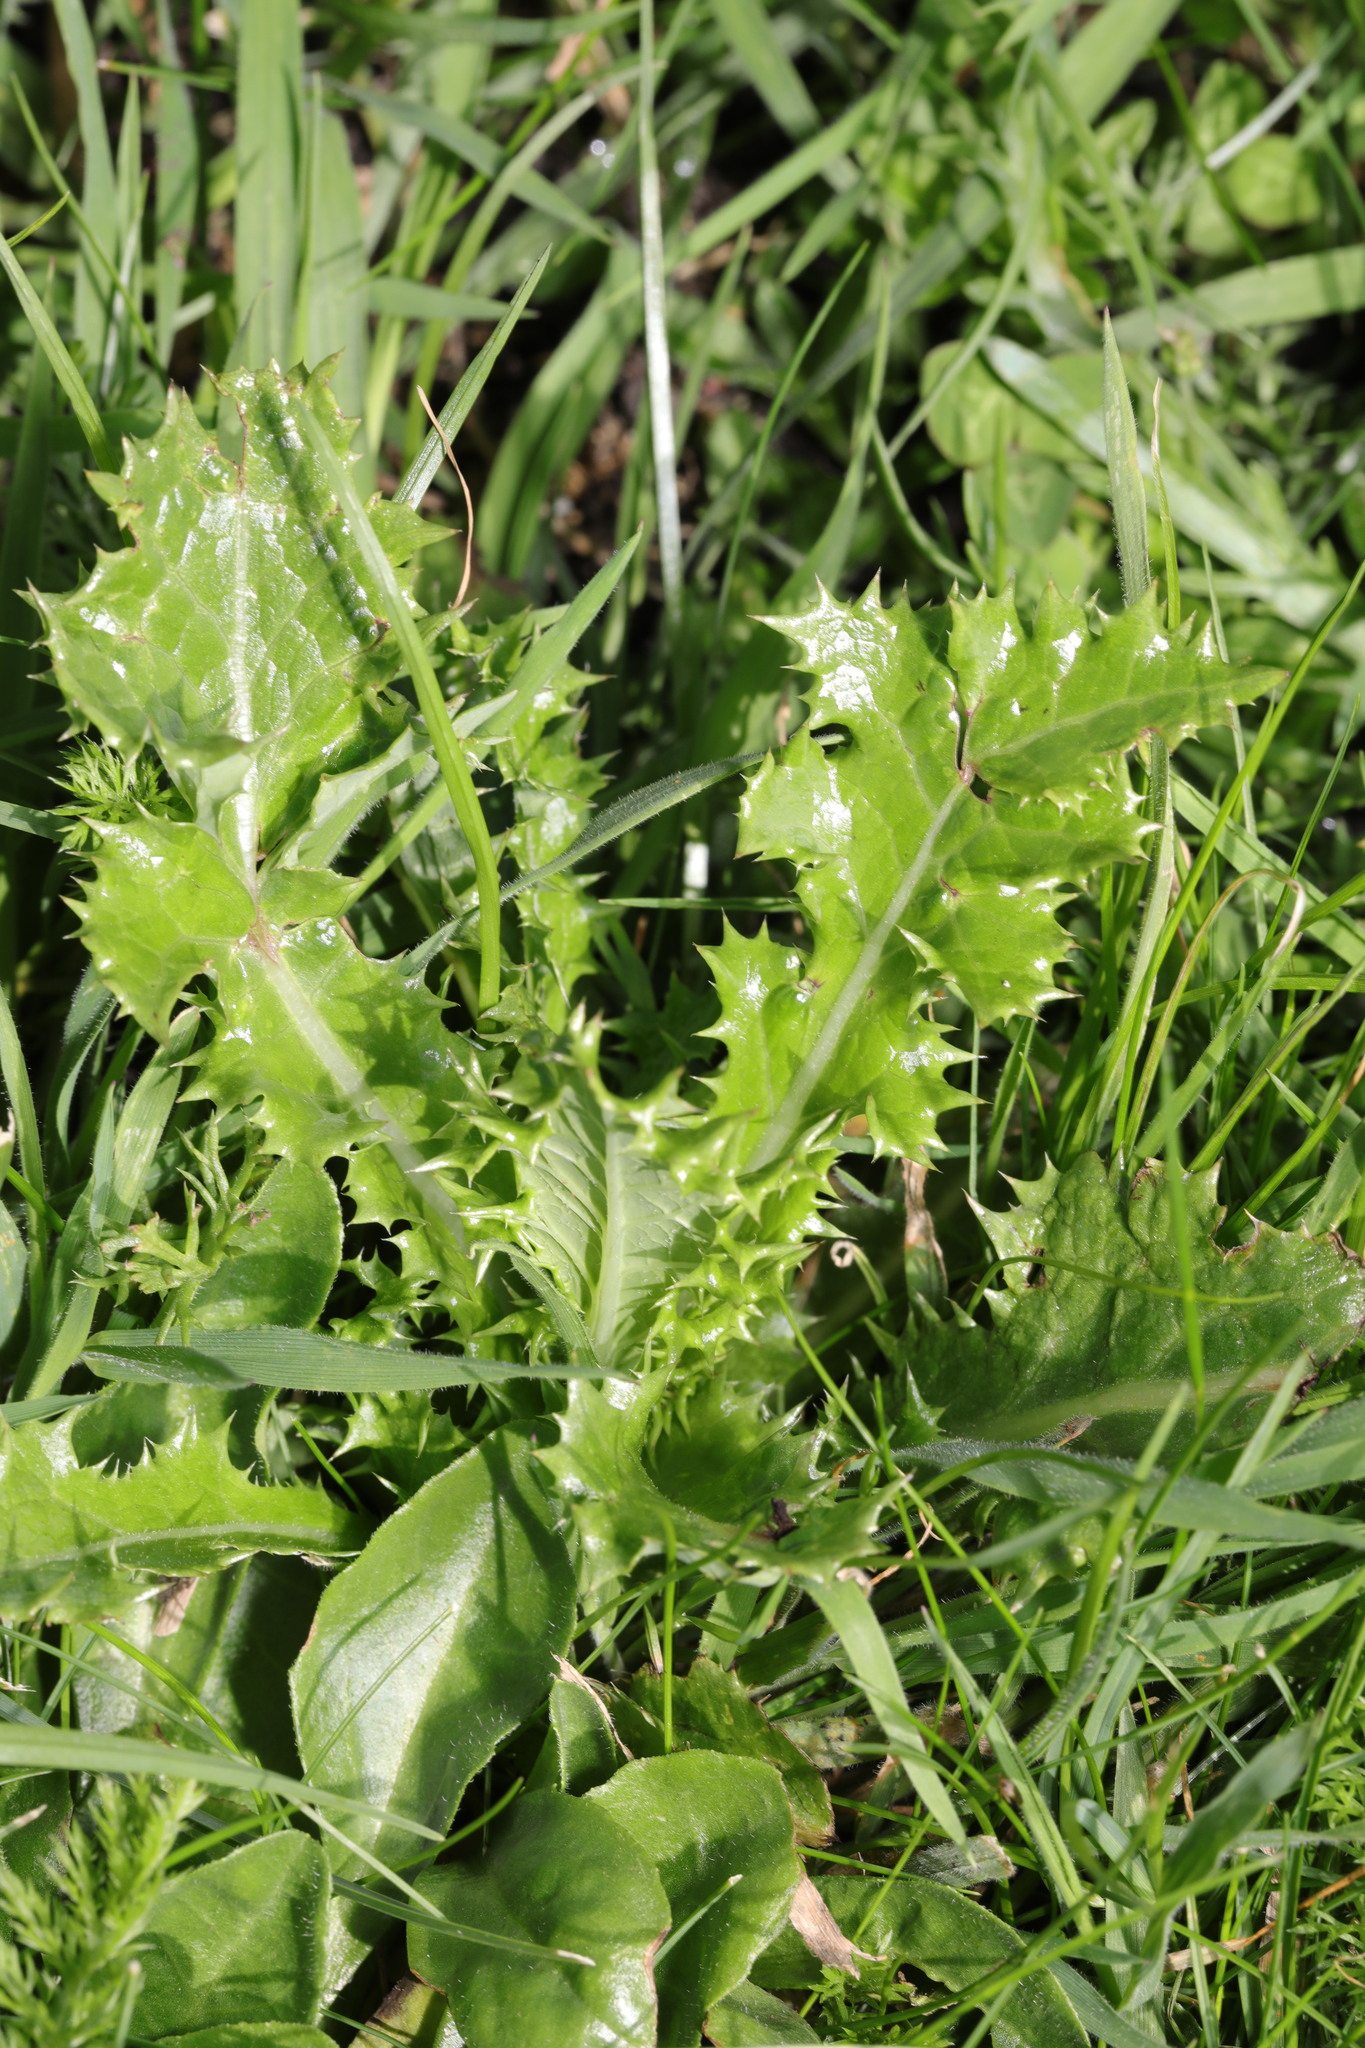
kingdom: Plantae
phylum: Tracheophyta
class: Magnoliopsida
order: Asterales
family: Asteraceae
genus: Sonchus
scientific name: Sonchus asper
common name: Prickly sow-thistle
